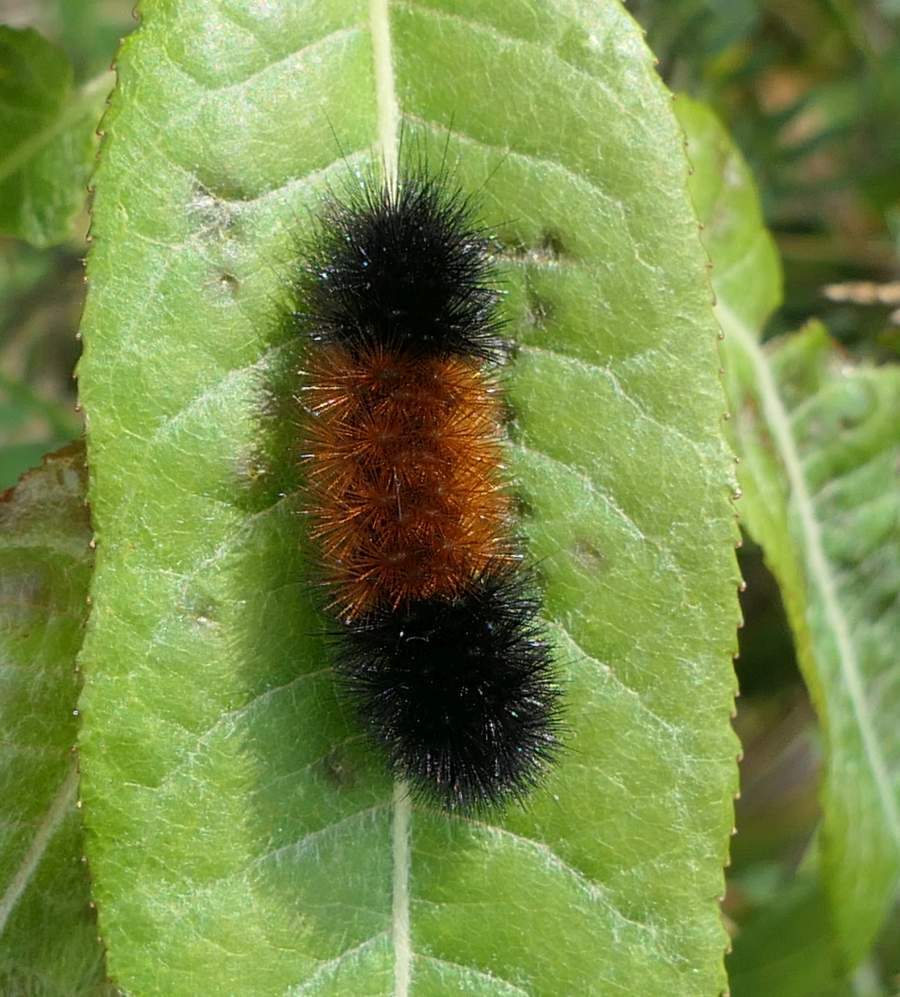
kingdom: Animalia
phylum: Arthropoda
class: Insecta
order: Lepidoptera
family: Erebidae
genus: Pyrrharctia
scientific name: Pyrrharctia isabella
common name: Isabella tiger moth
